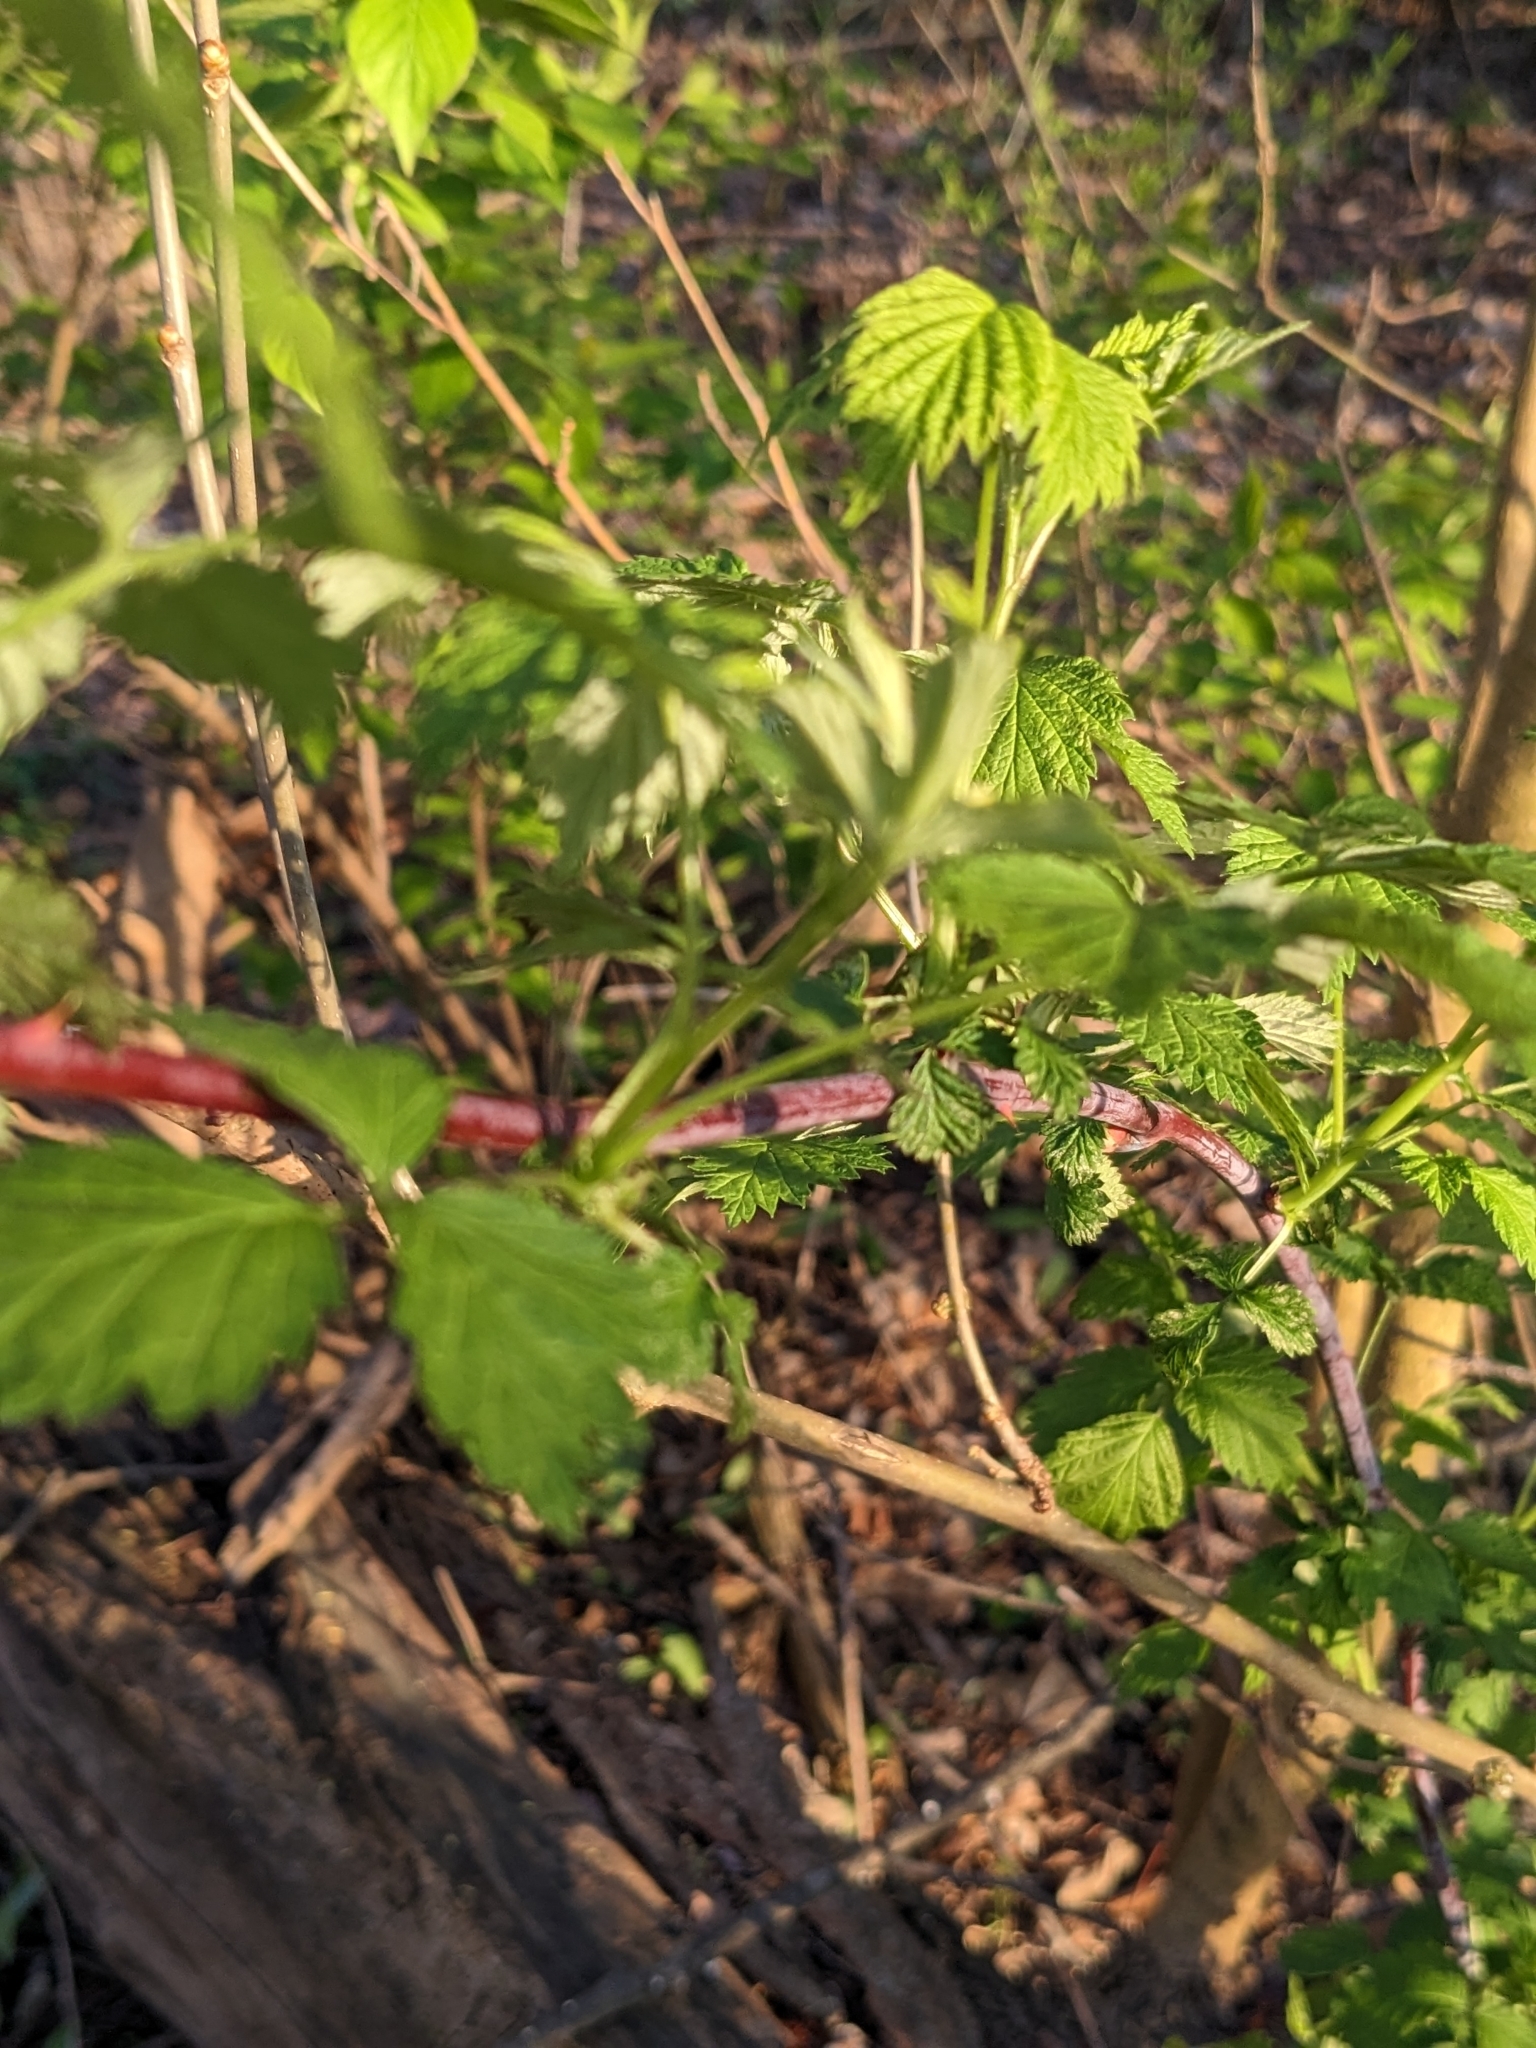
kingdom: Plantae
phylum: Tracheophyta
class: Magnoliopsida
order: Rosales
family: Rosaceae
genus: Rubus
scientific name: Rubus occidentalis
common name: Black raspberry
